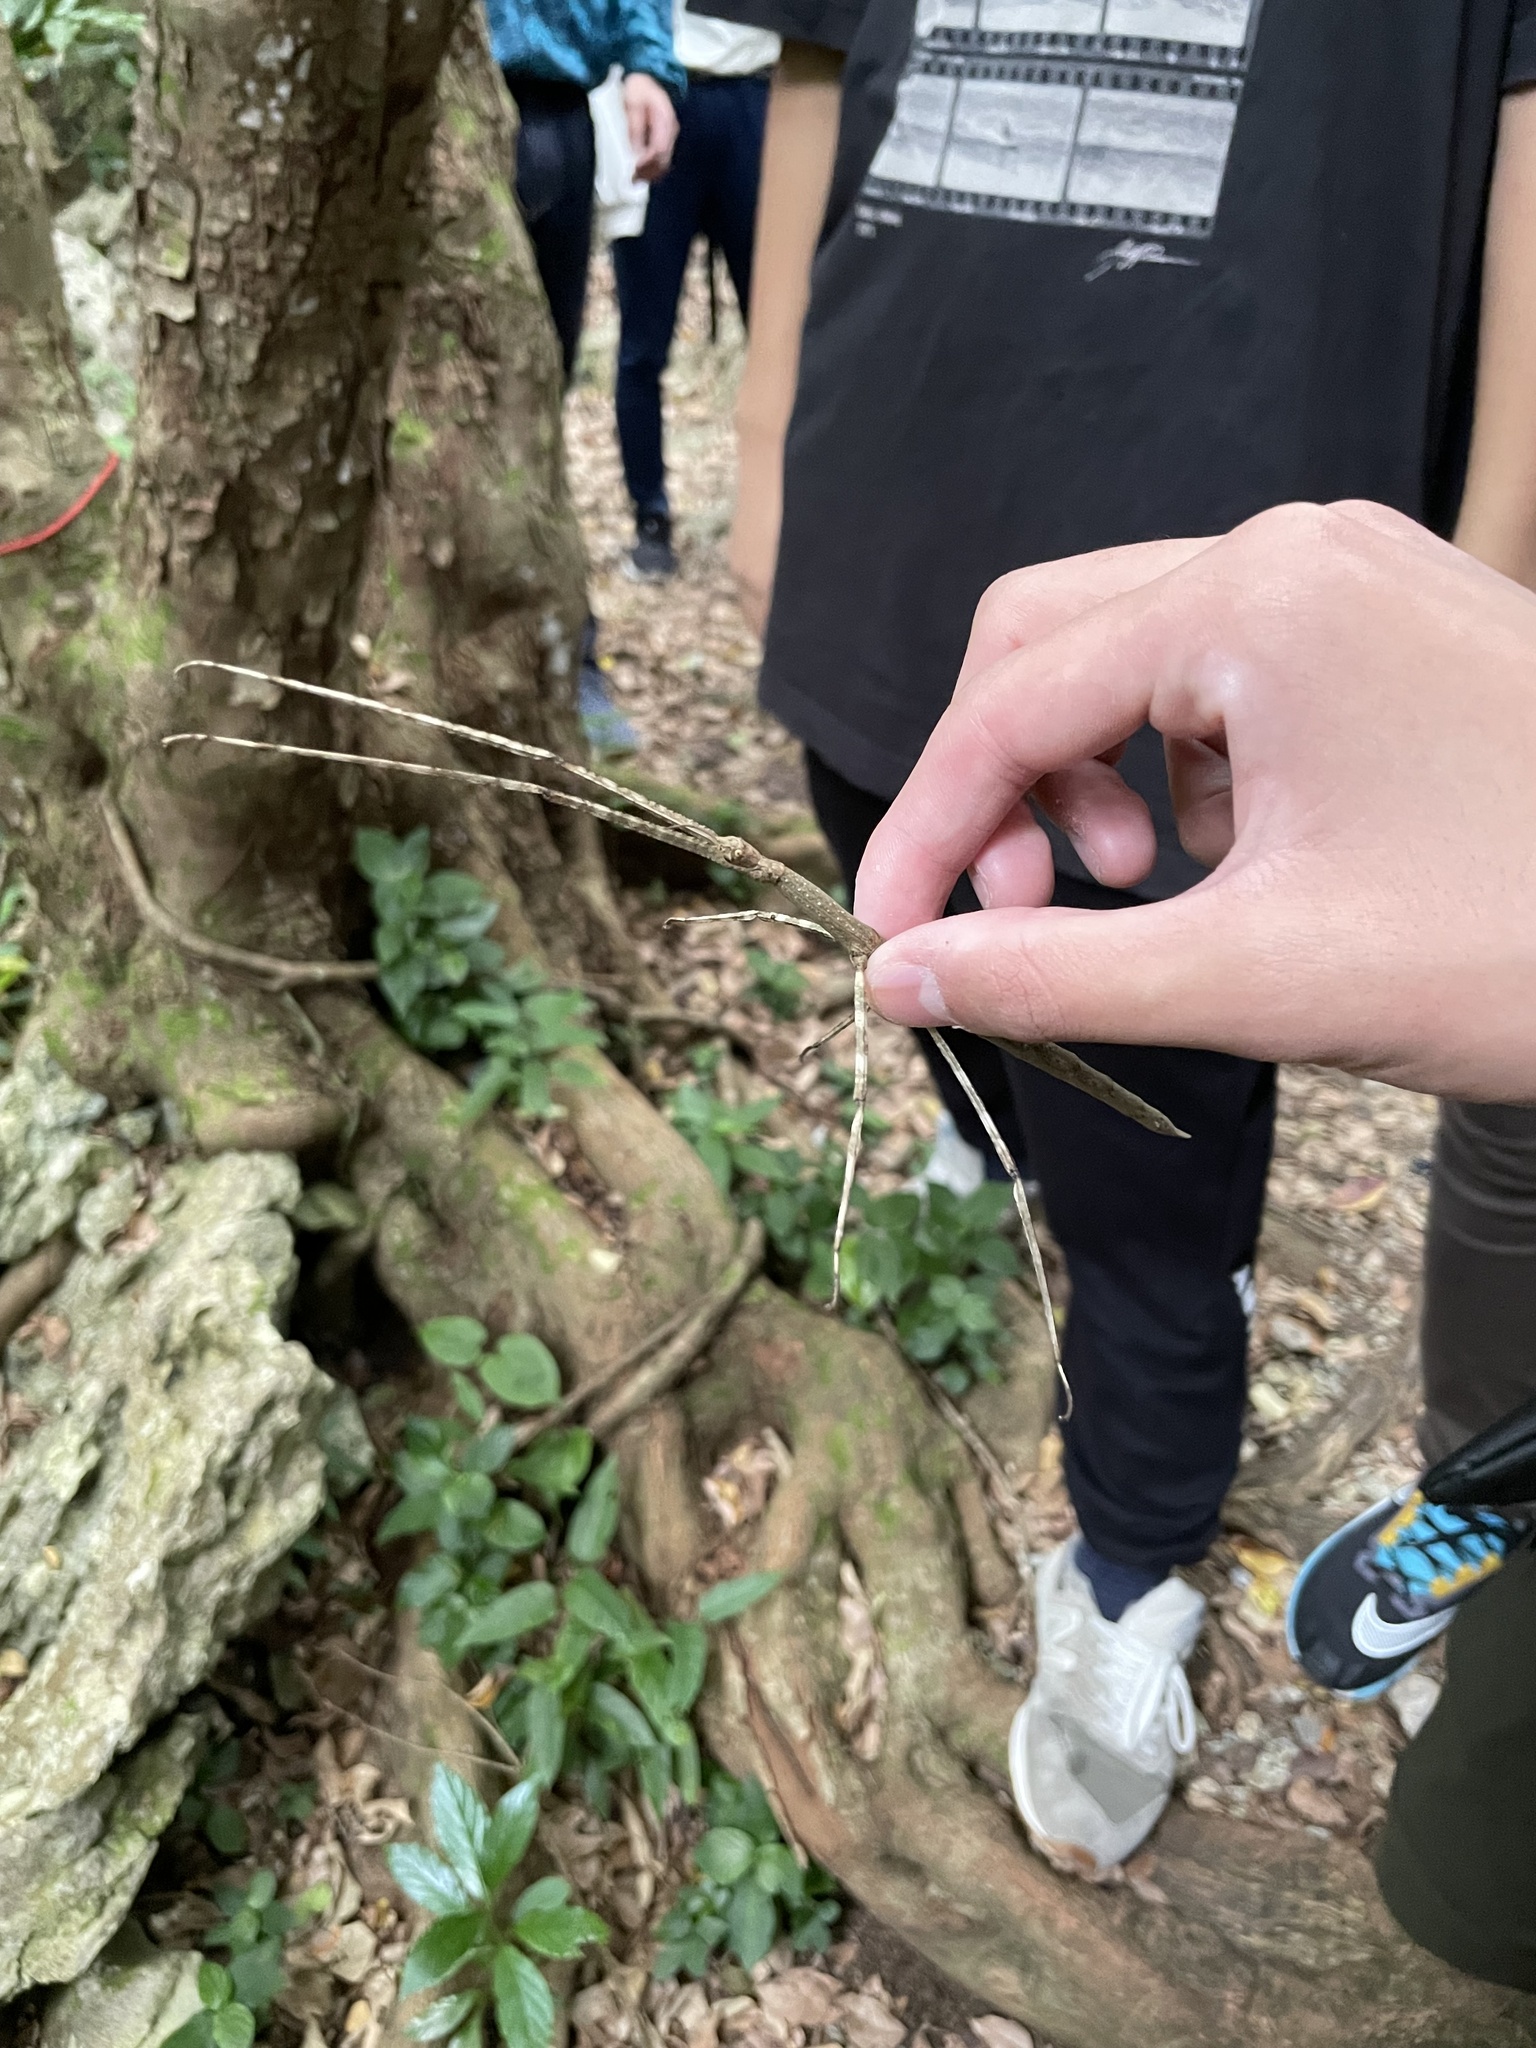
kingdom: Animalia
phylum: Arthropoda
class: Insecta
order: Phasmida
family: Phasmatidae
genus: Entoria
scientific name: Entoria miyakoensis
